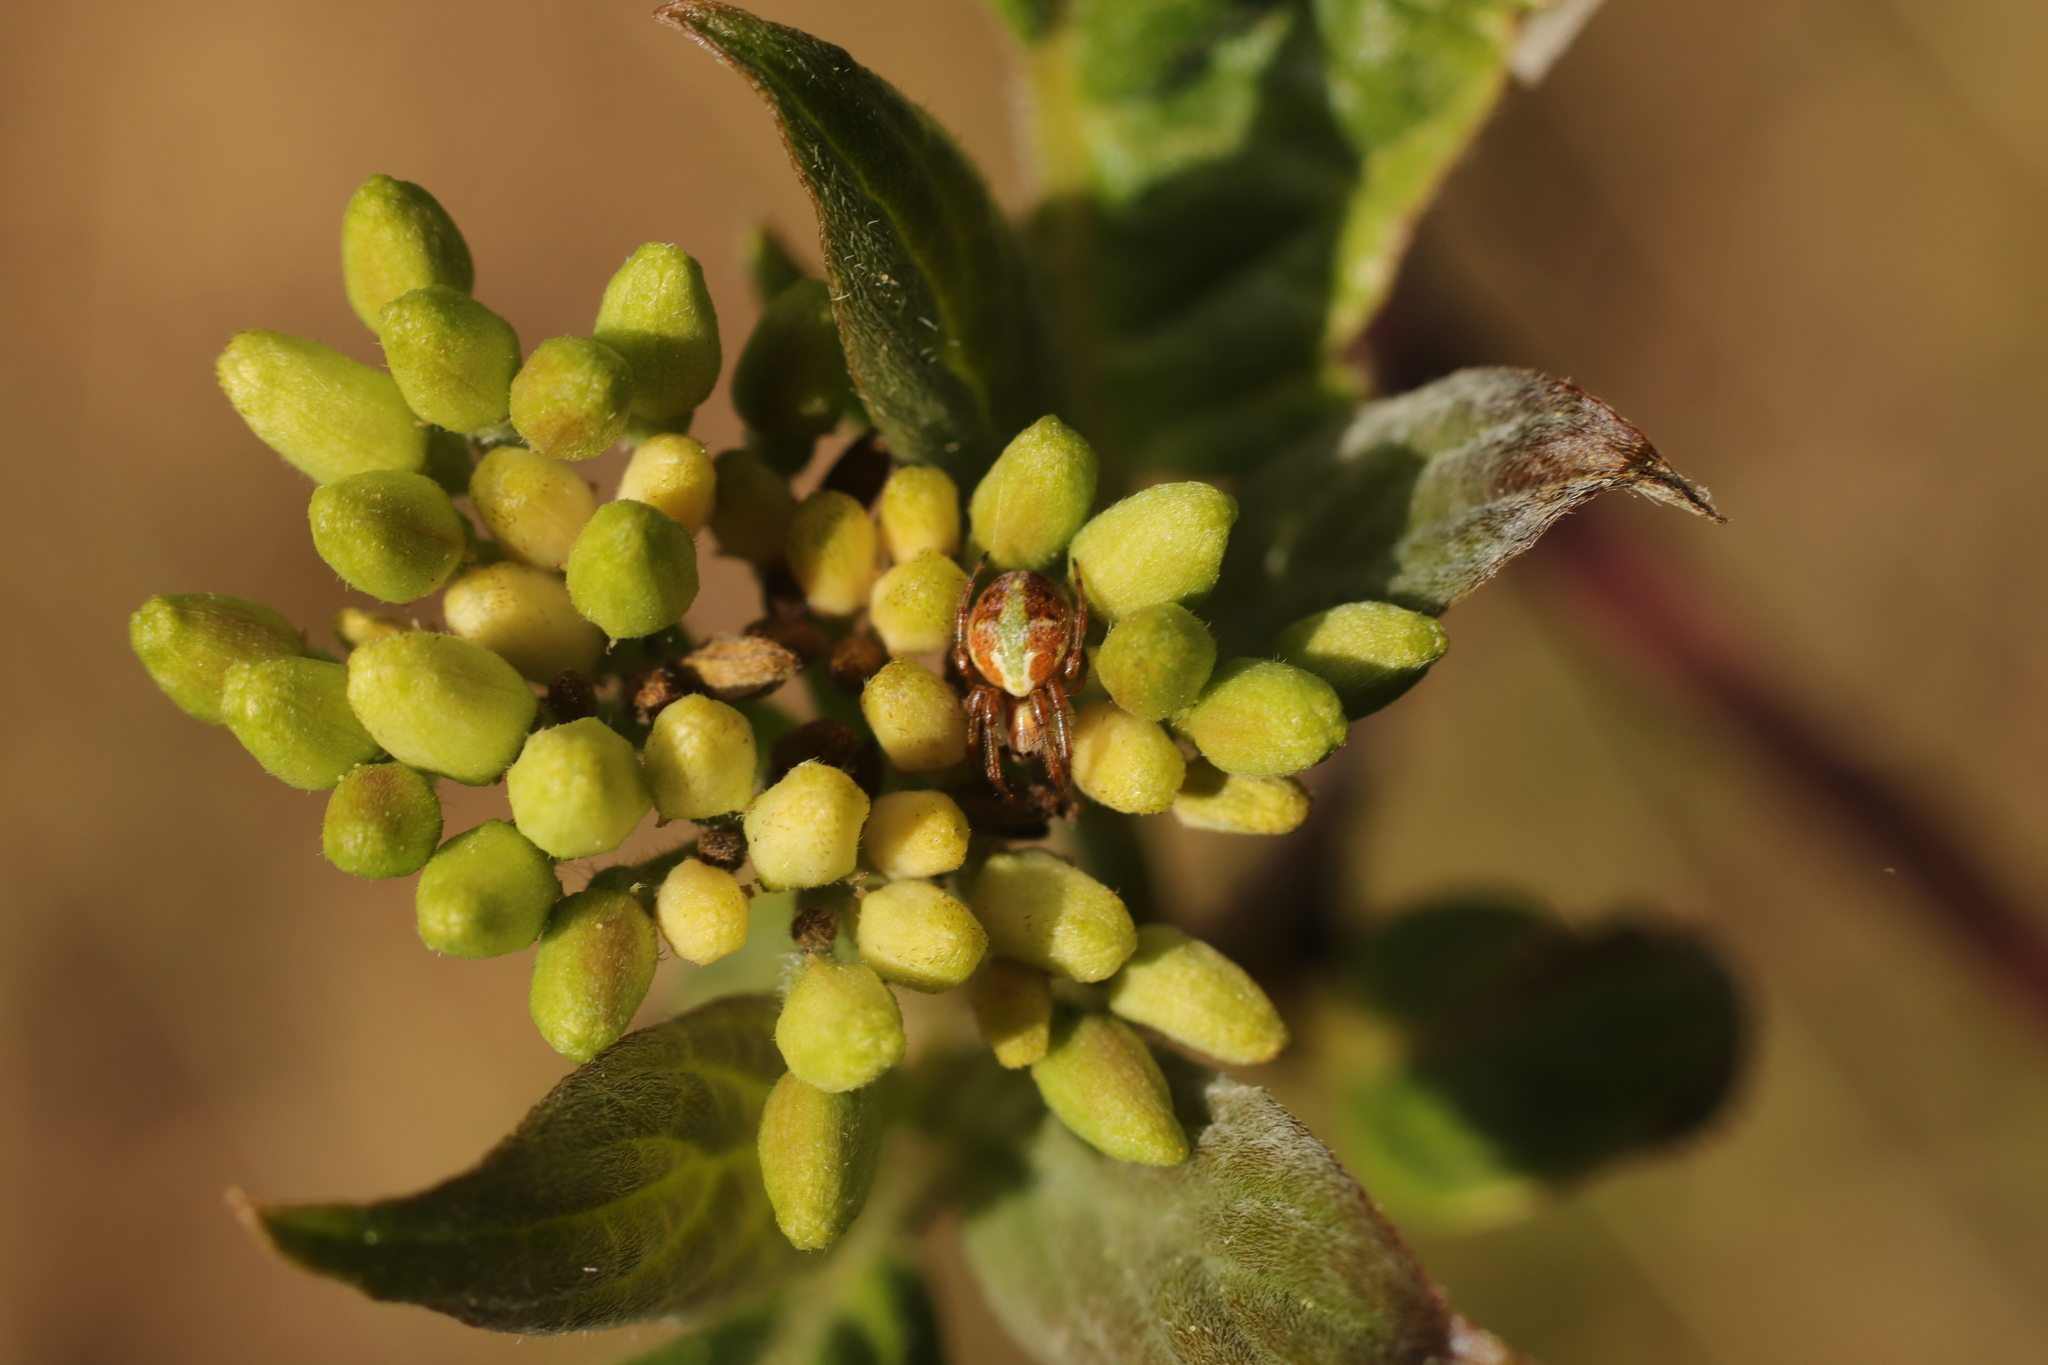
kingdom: Animalia
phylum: Arthropoda
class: Arachnida
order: Araneae
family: Araneidae
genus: Novaranea
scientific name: Novaranea queribunda
